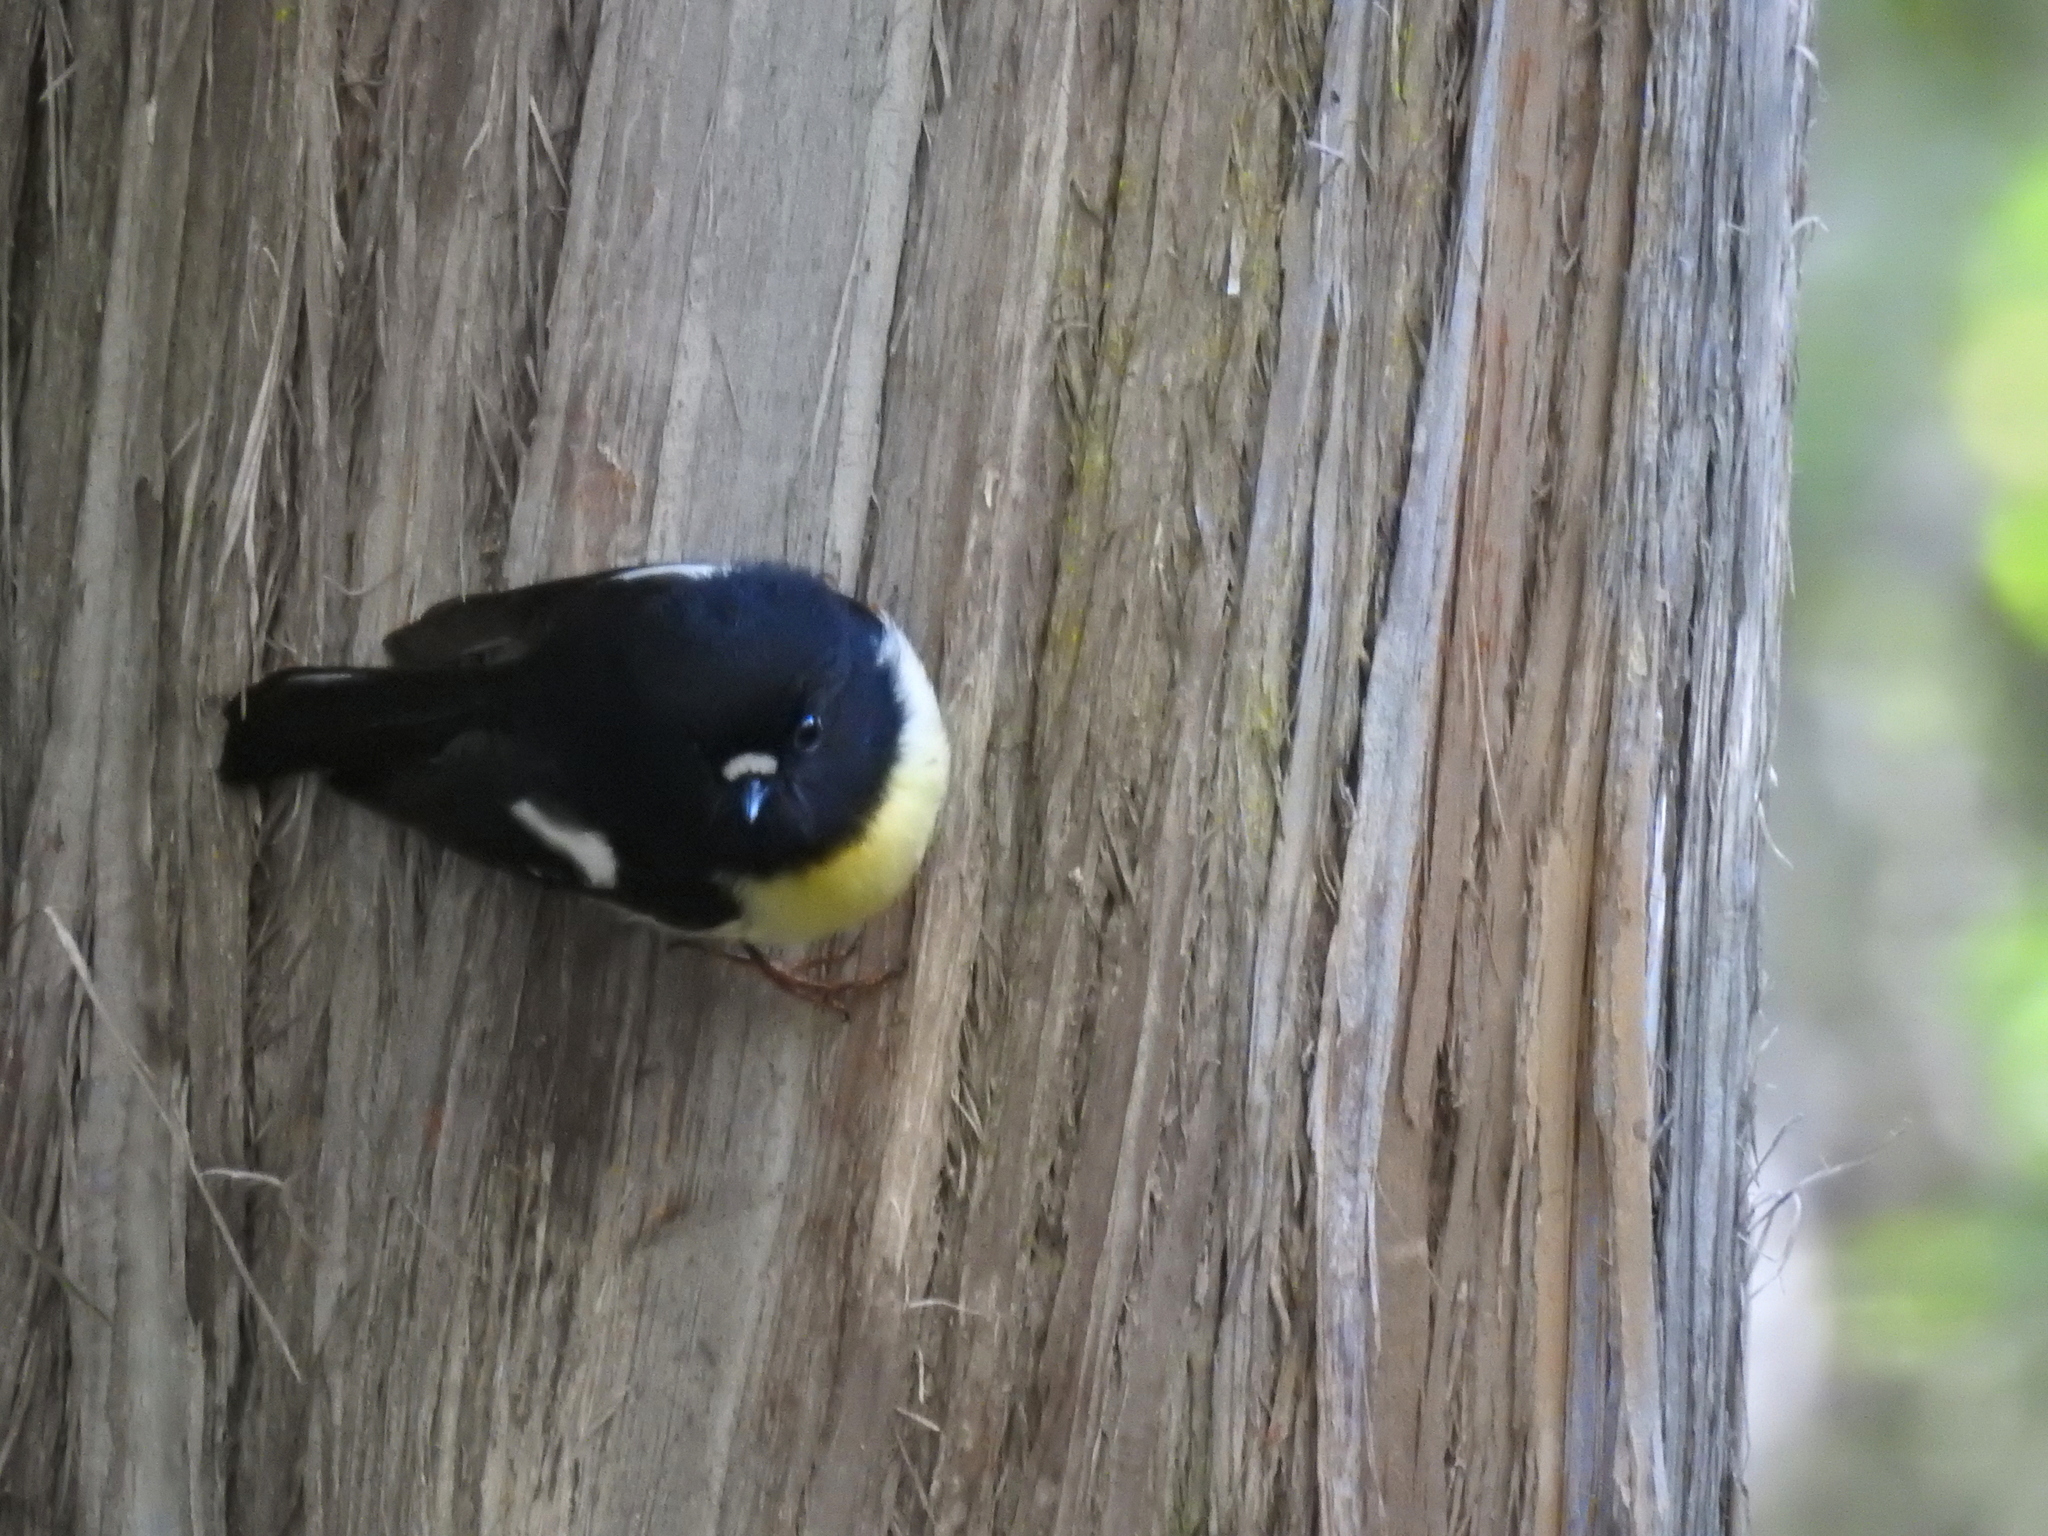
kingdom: Animalia
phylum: Chordata
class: Aves
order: Passeriformes
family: Petroicidae
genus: Petroica
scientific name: Petroica macrocephala
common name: Tomtit
